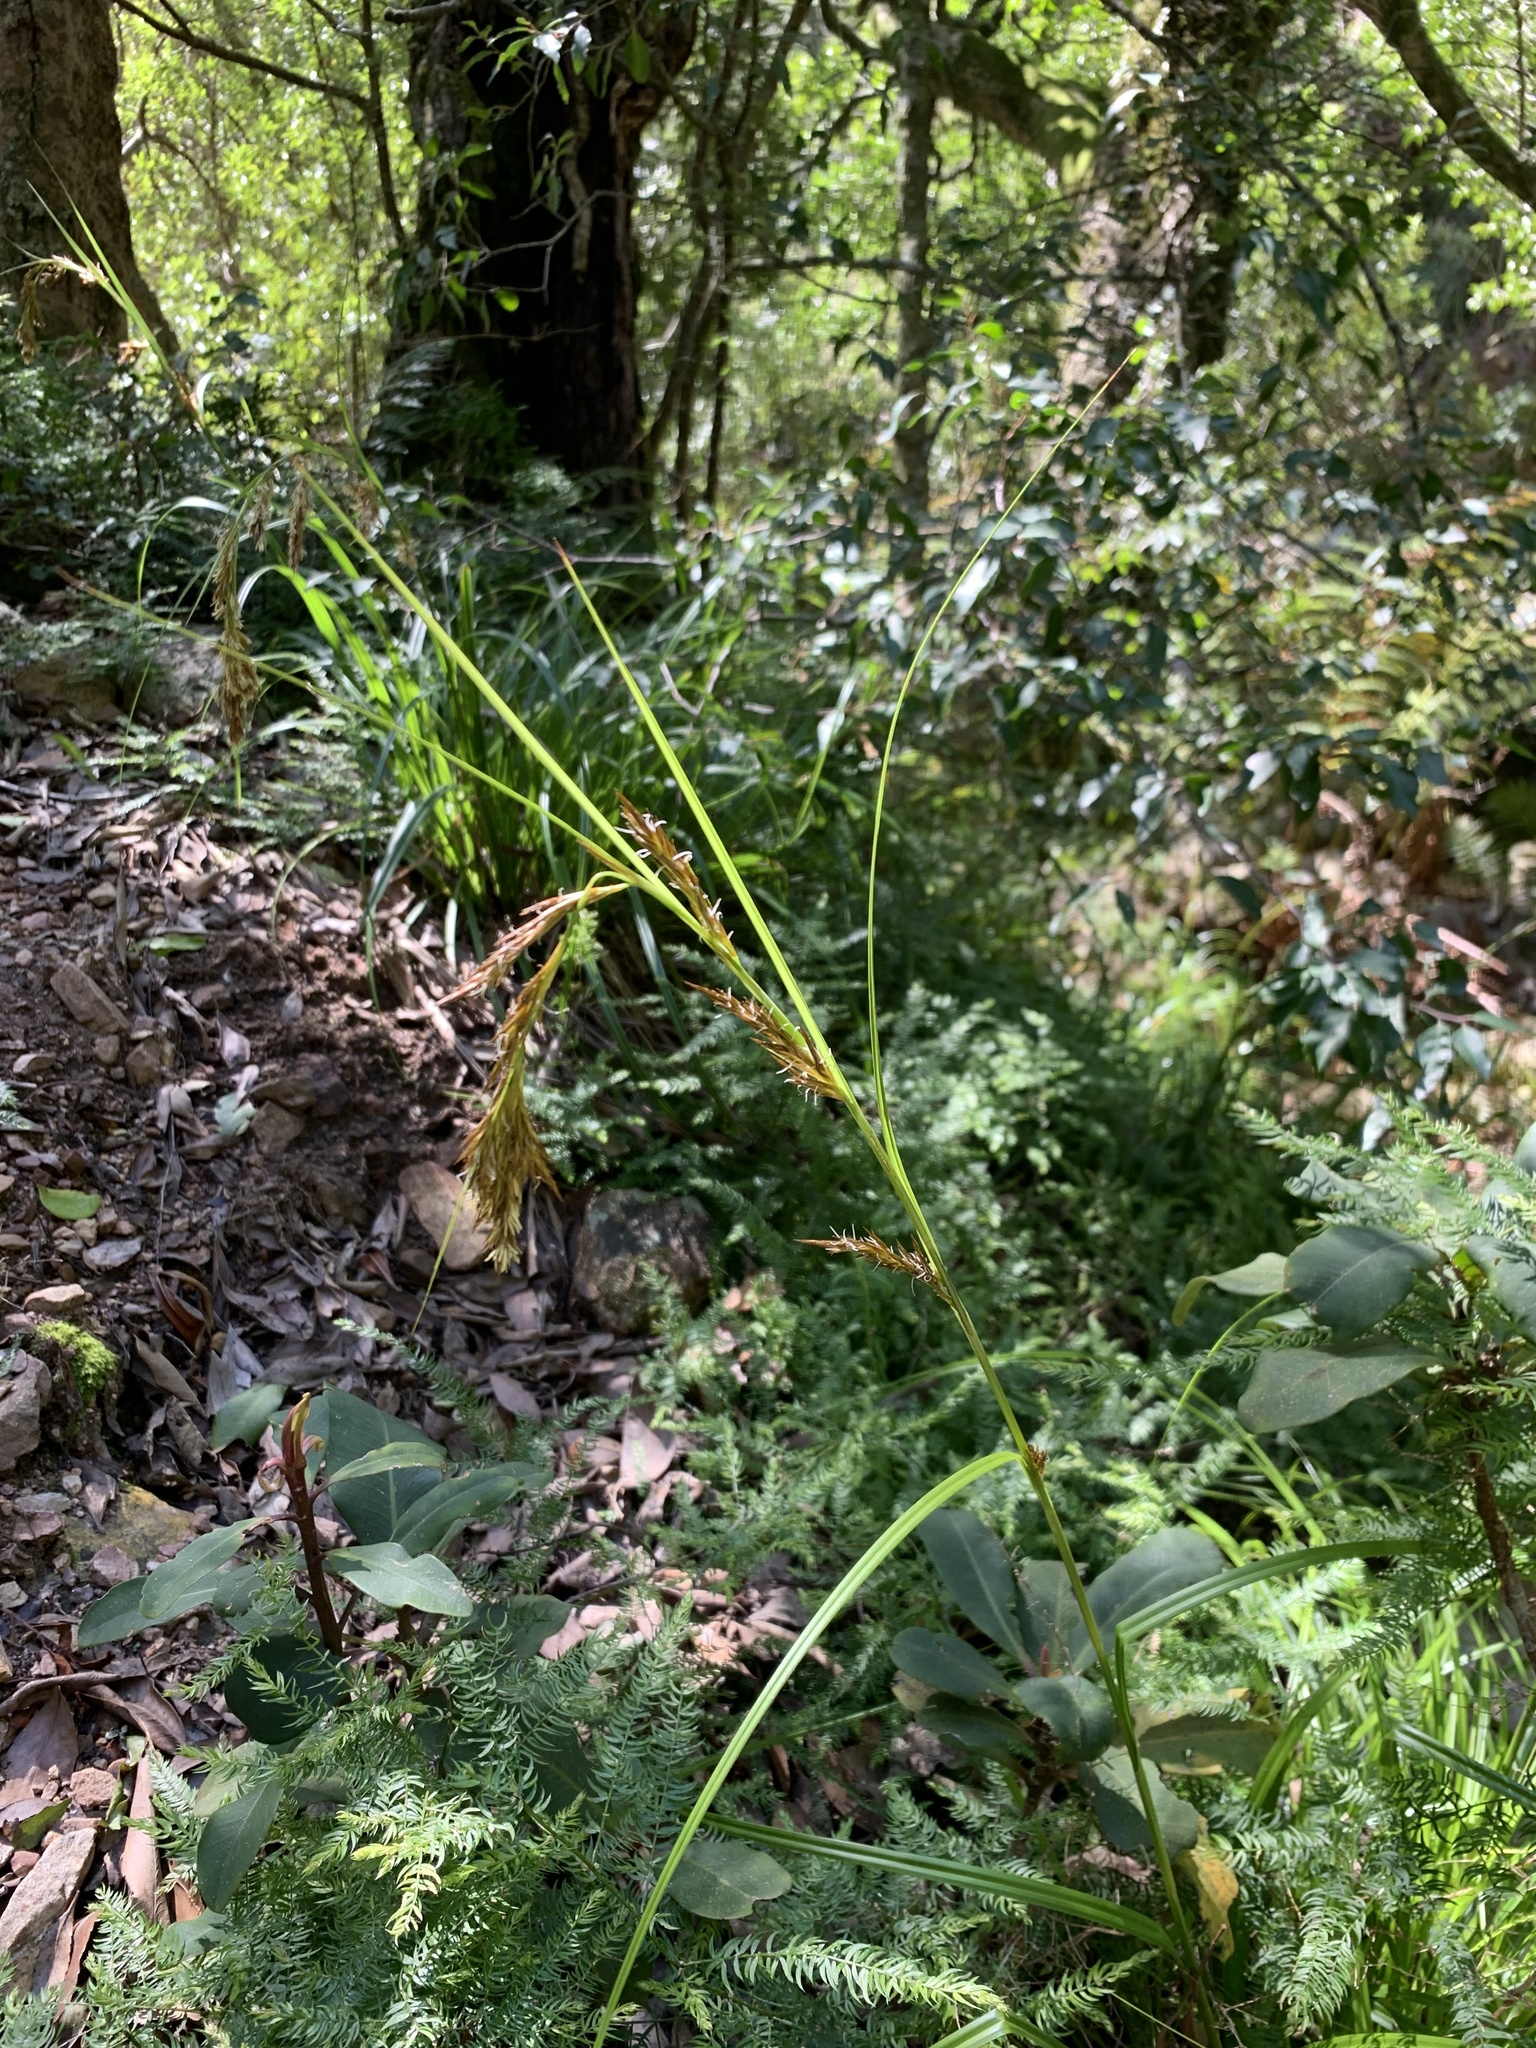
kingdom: Plantae
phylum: Tracheophyta
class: Liliopsida
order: Poales
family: Cyperaceae
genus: Carex
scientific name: Carex lancea
